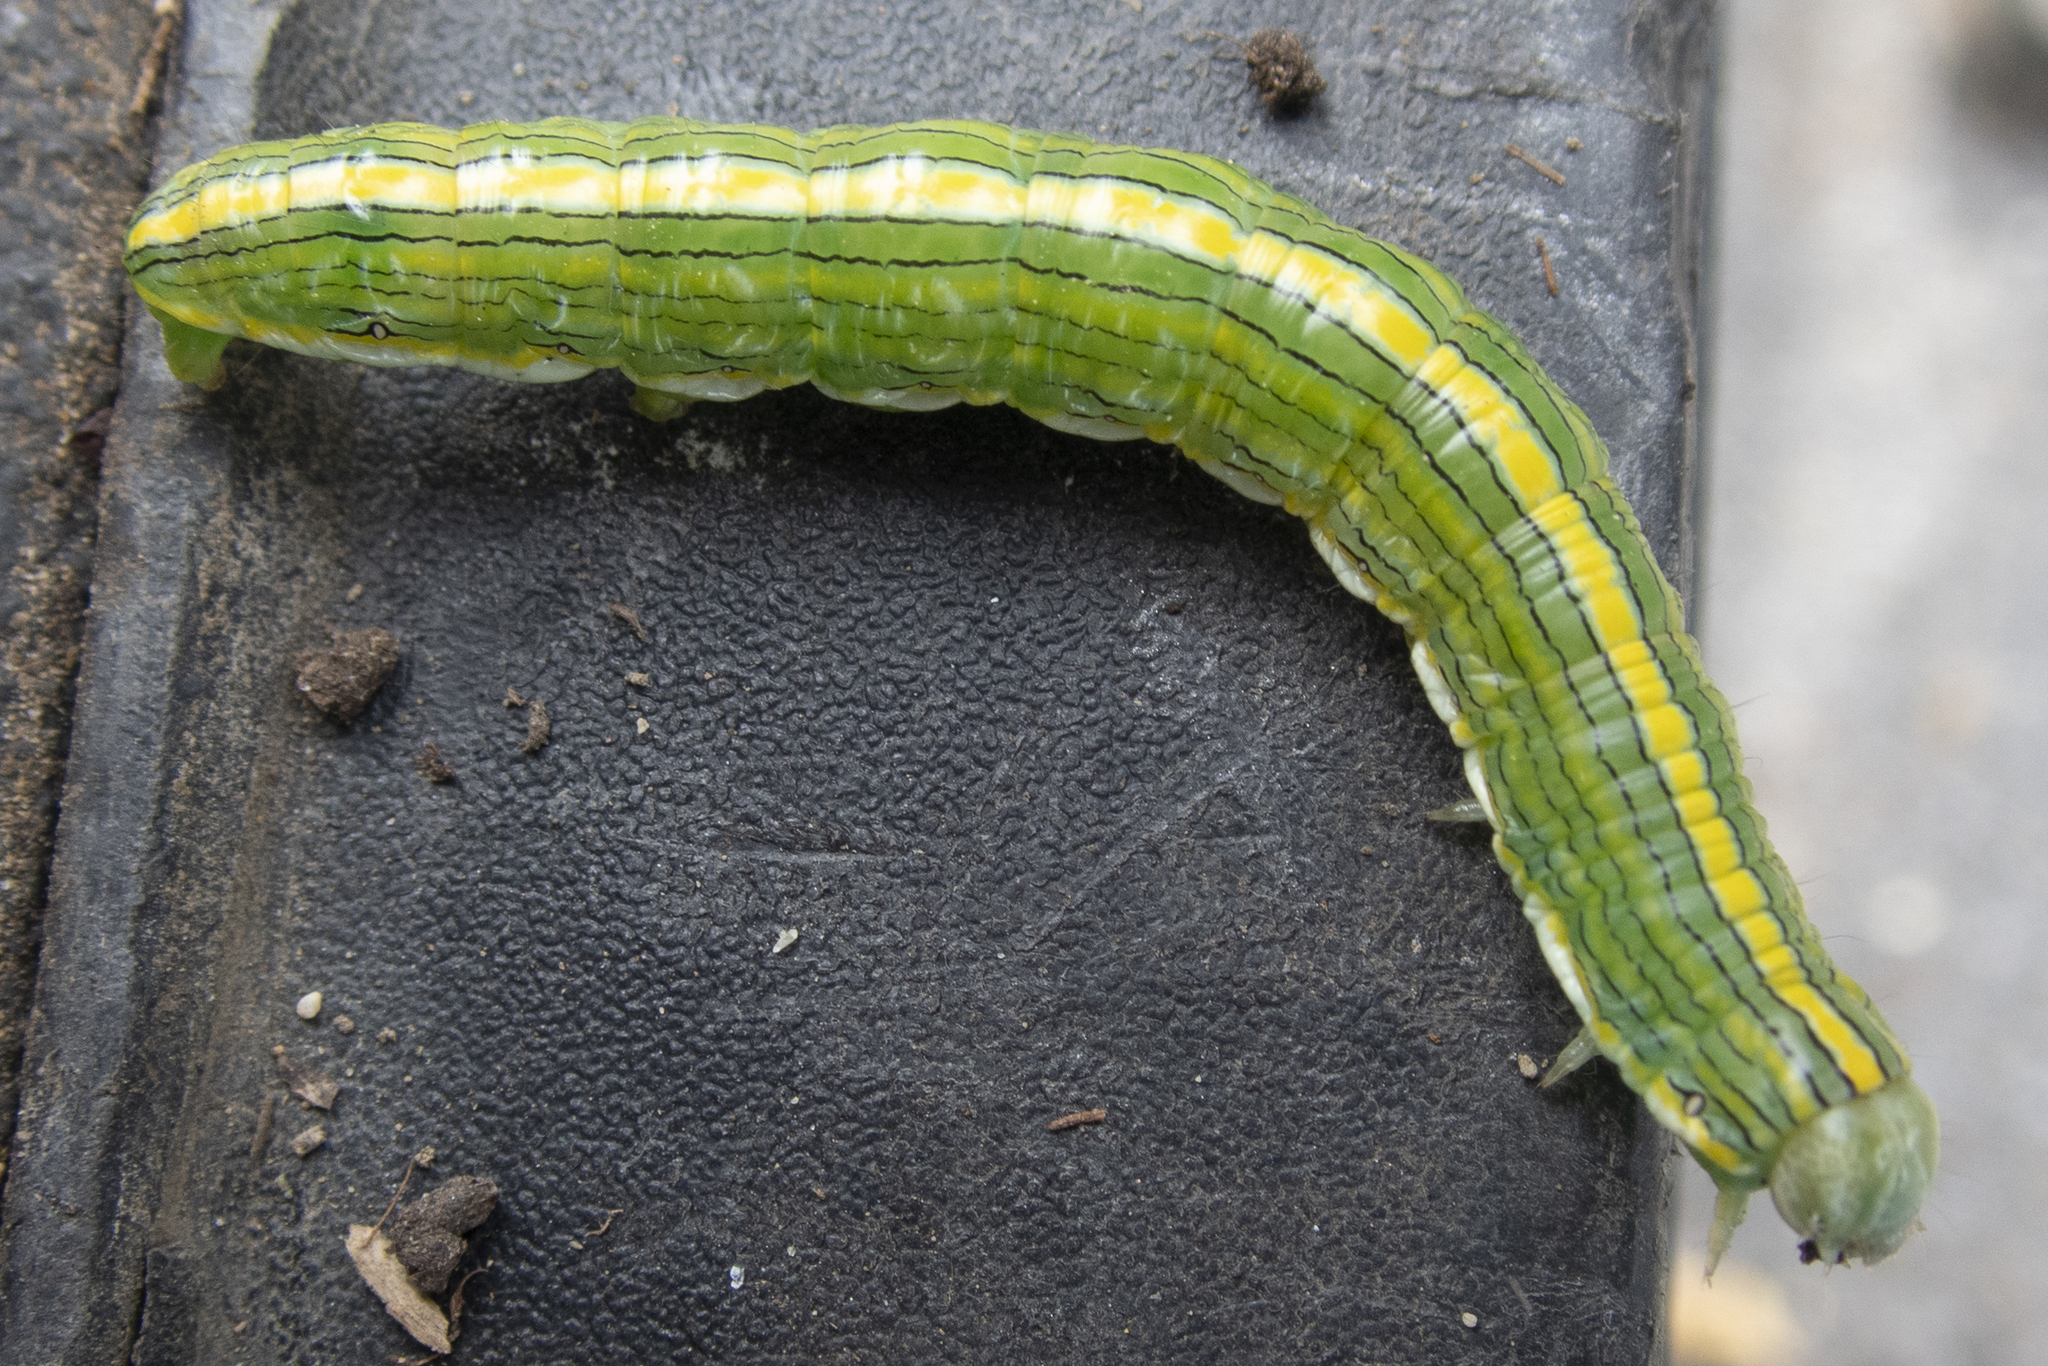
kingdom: Animalia
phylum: Arthropoda
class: Insecta
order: Lepidoptera
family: Noctuidae
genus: Cucullia
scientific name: Cucullia asteroides
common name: Asteroid moth
